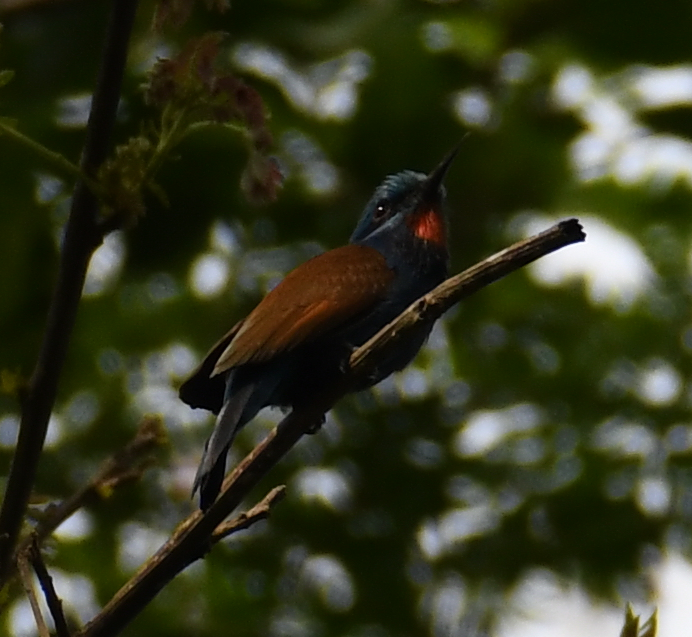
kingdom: Animalia
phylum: Chordata
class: Aves
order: Coraciiformes
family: Meropidae
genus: Merops
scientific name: Merops mentalis
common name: Blue-moustached bee-eater
